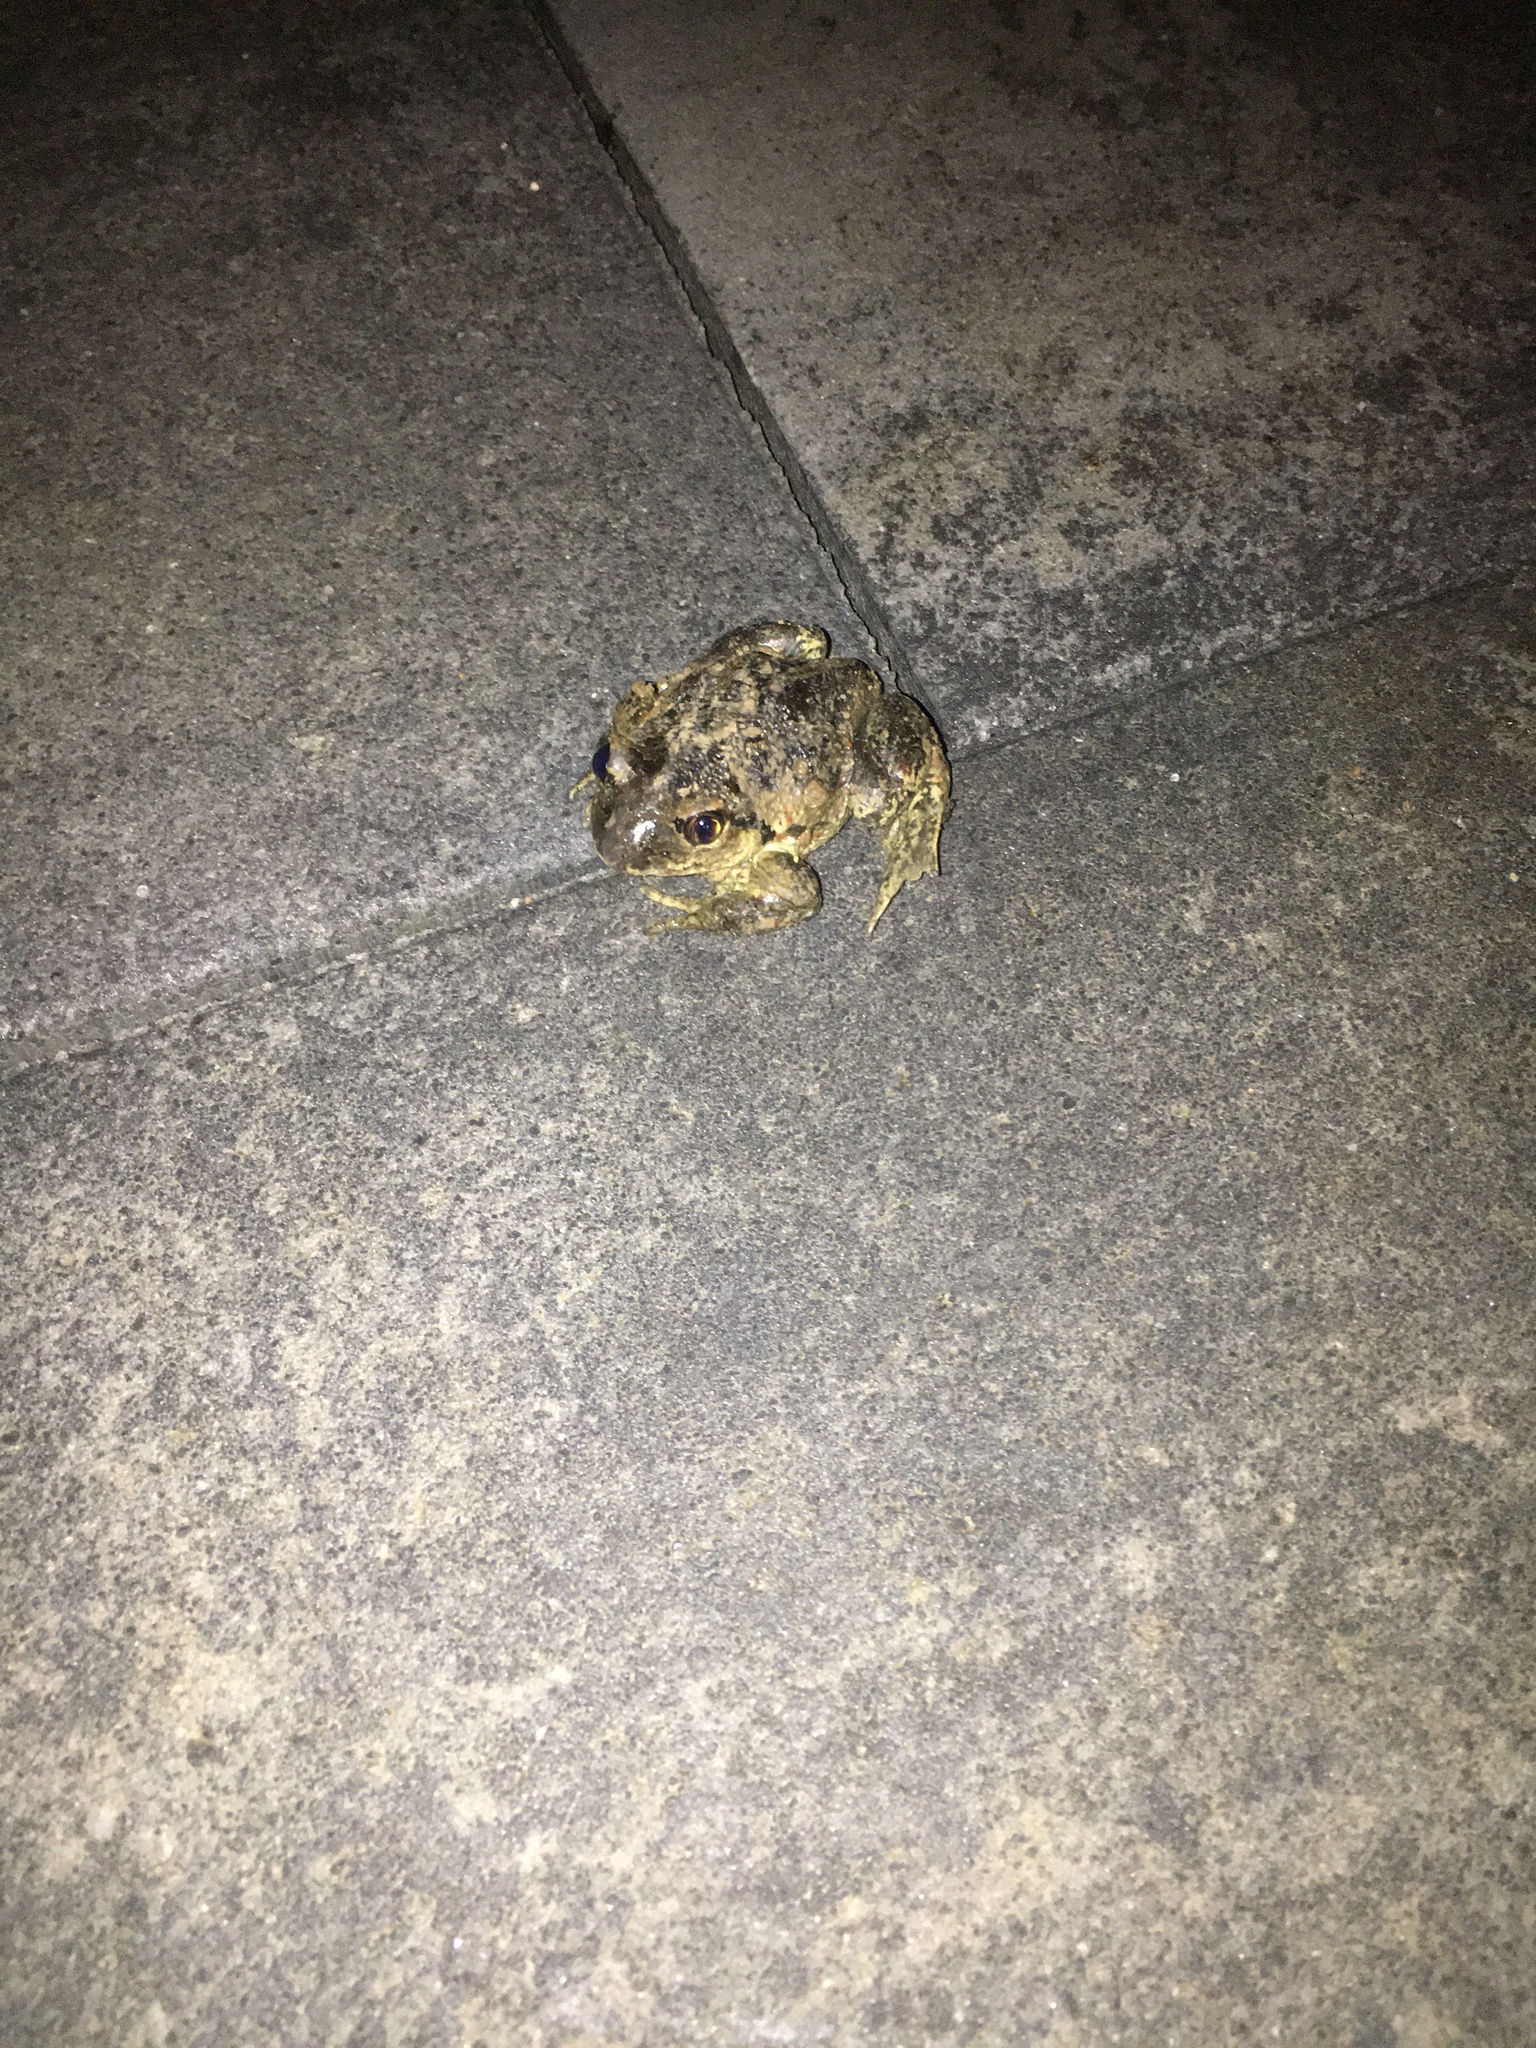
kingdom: Animalia
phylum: Chordata
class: Amphibia
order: Anura
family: Pelobatidae
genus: Pelobates
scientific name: Pelobates fuscus
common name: Common eurasian spadefoot toad
